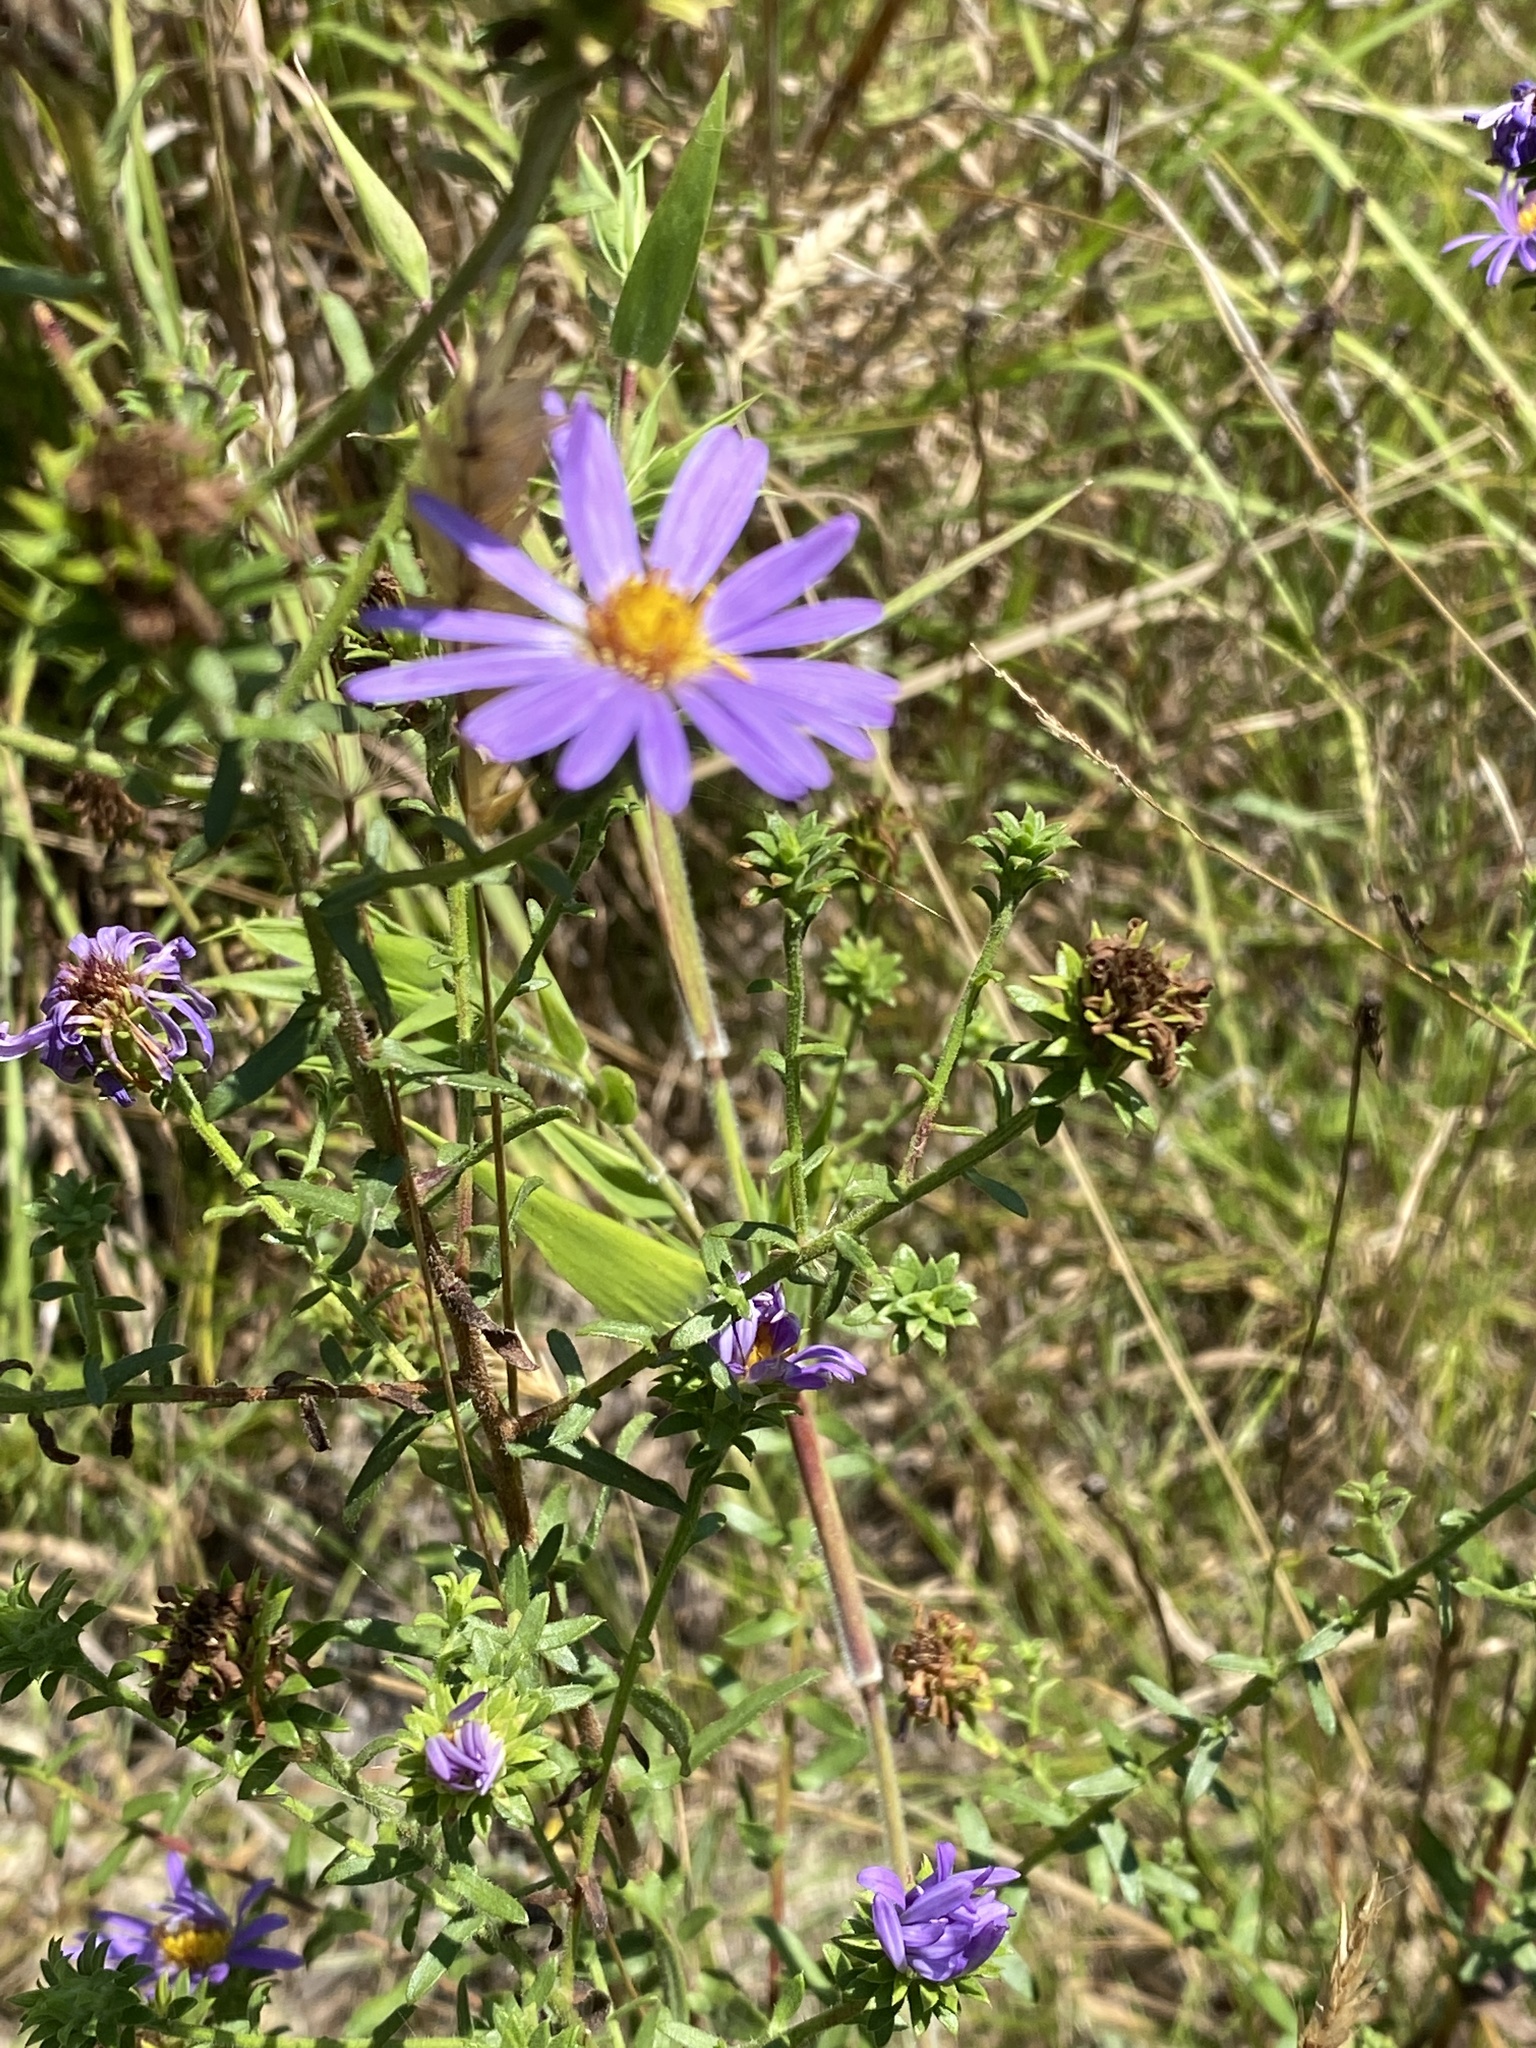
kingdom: Plantae
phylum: Tracheophyta
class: Magnoliopsida
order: Asterales
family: Asteraceae
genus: Symphyotrichum
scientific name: Symphyotrichum grandiflorum
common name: Big-head aster
